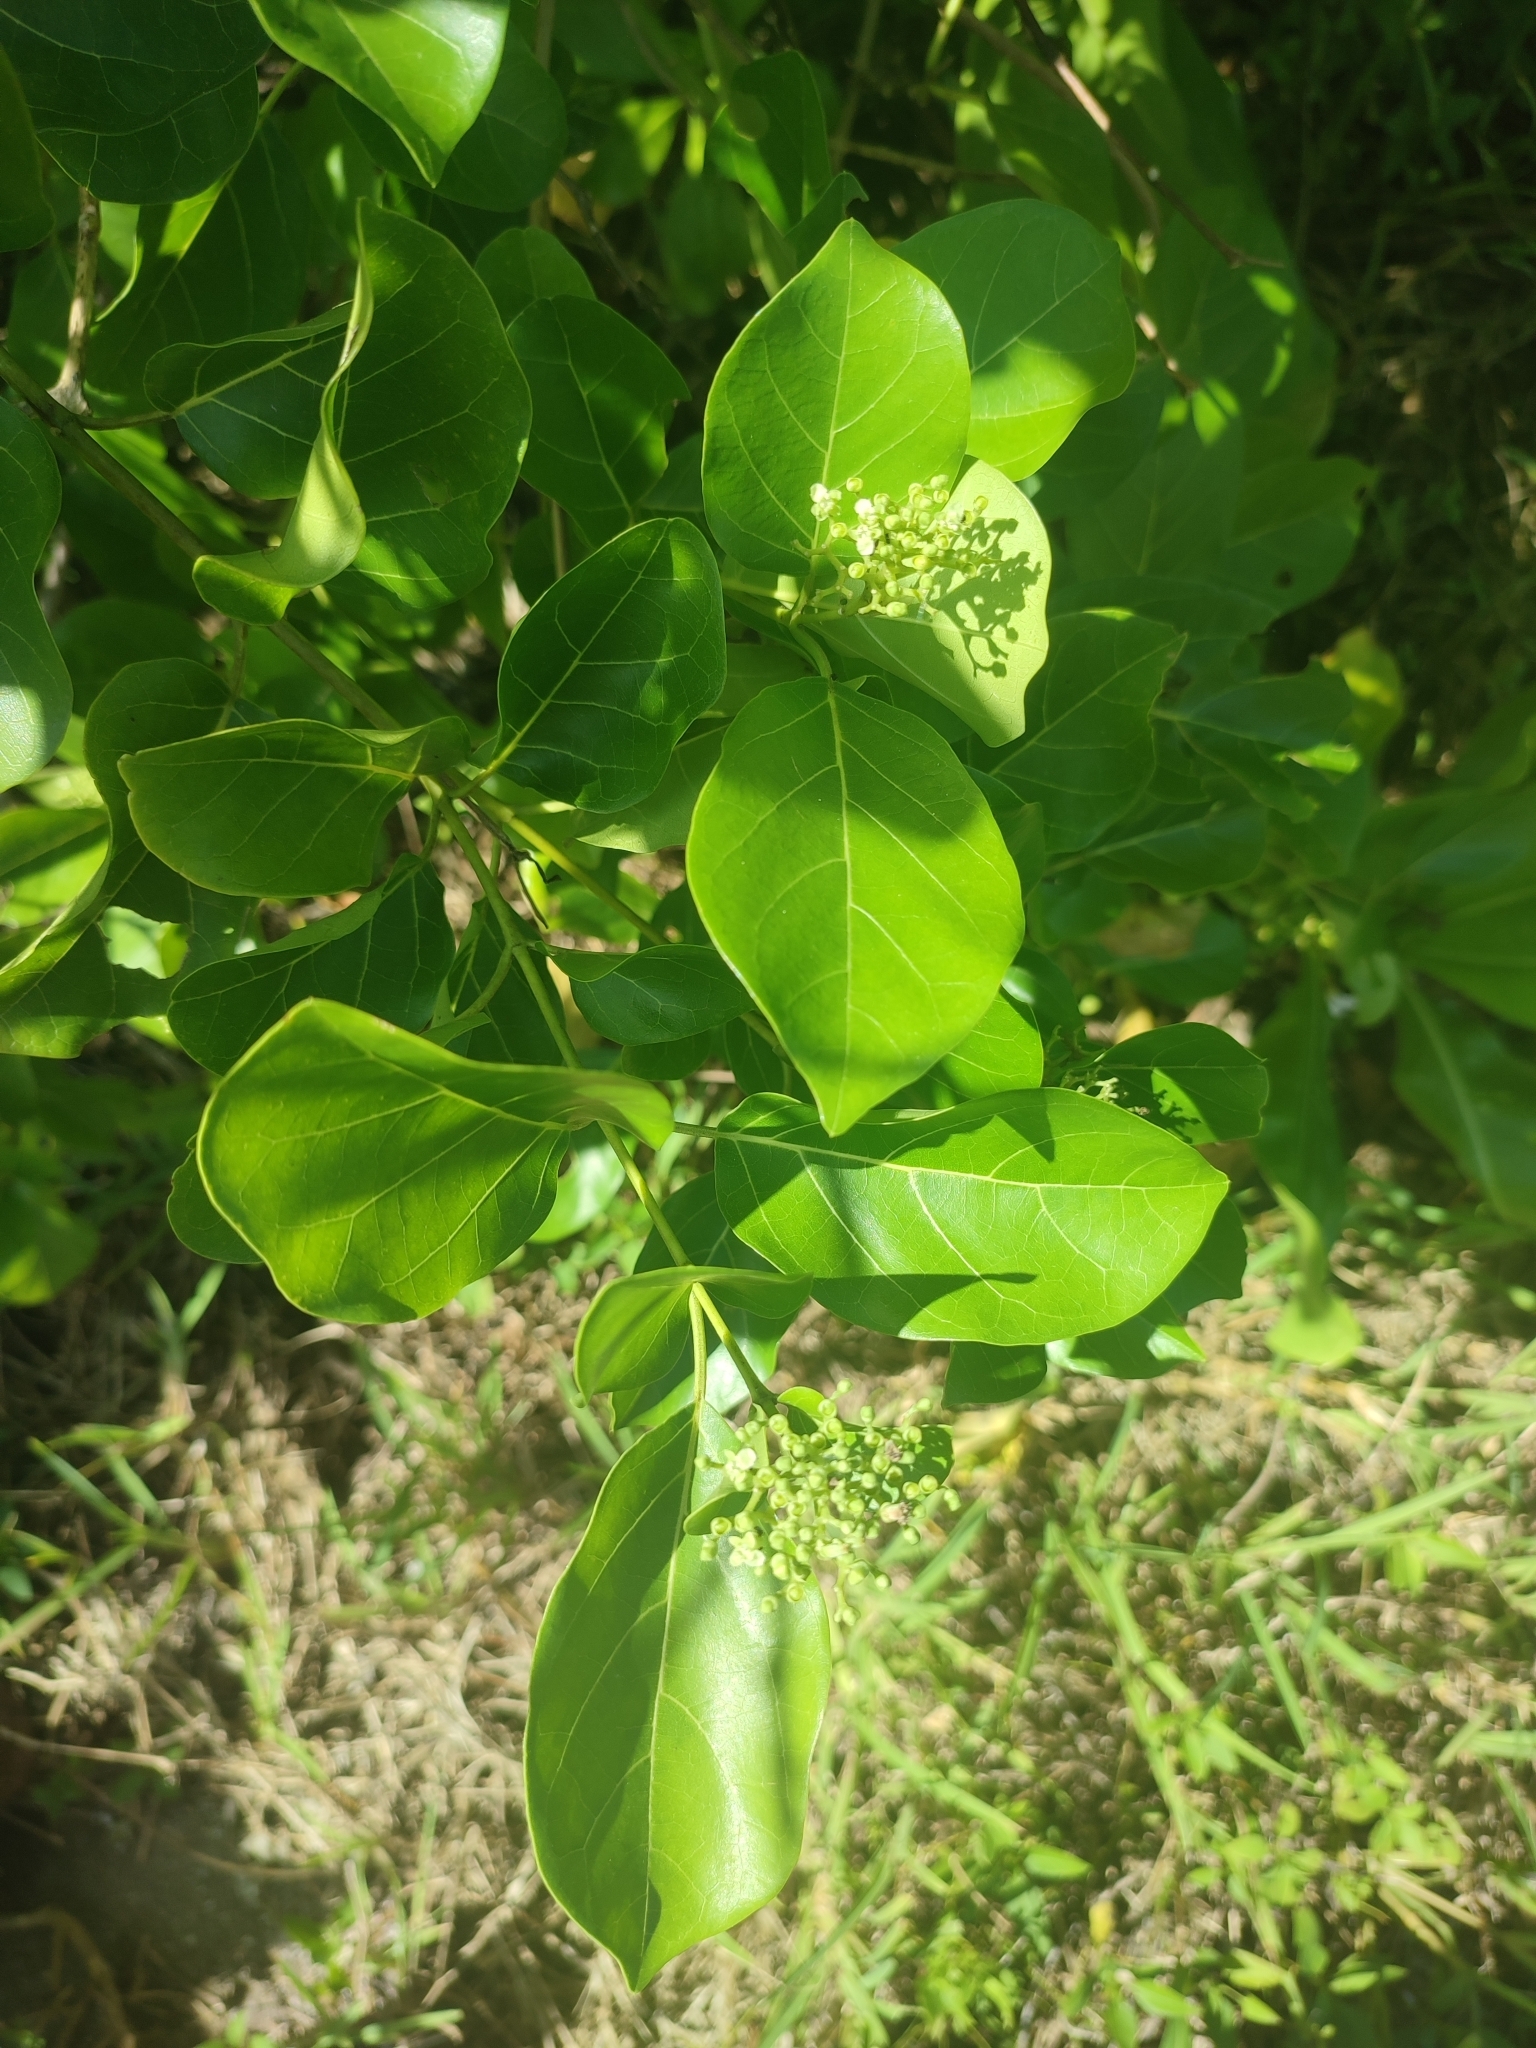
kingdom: Plantae
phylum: Tracheophyta
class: Magnoliopsida
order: Lamiales
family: Lamiaceae
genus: Premna
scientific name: Premna serratifolia
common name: Bastard guelder
